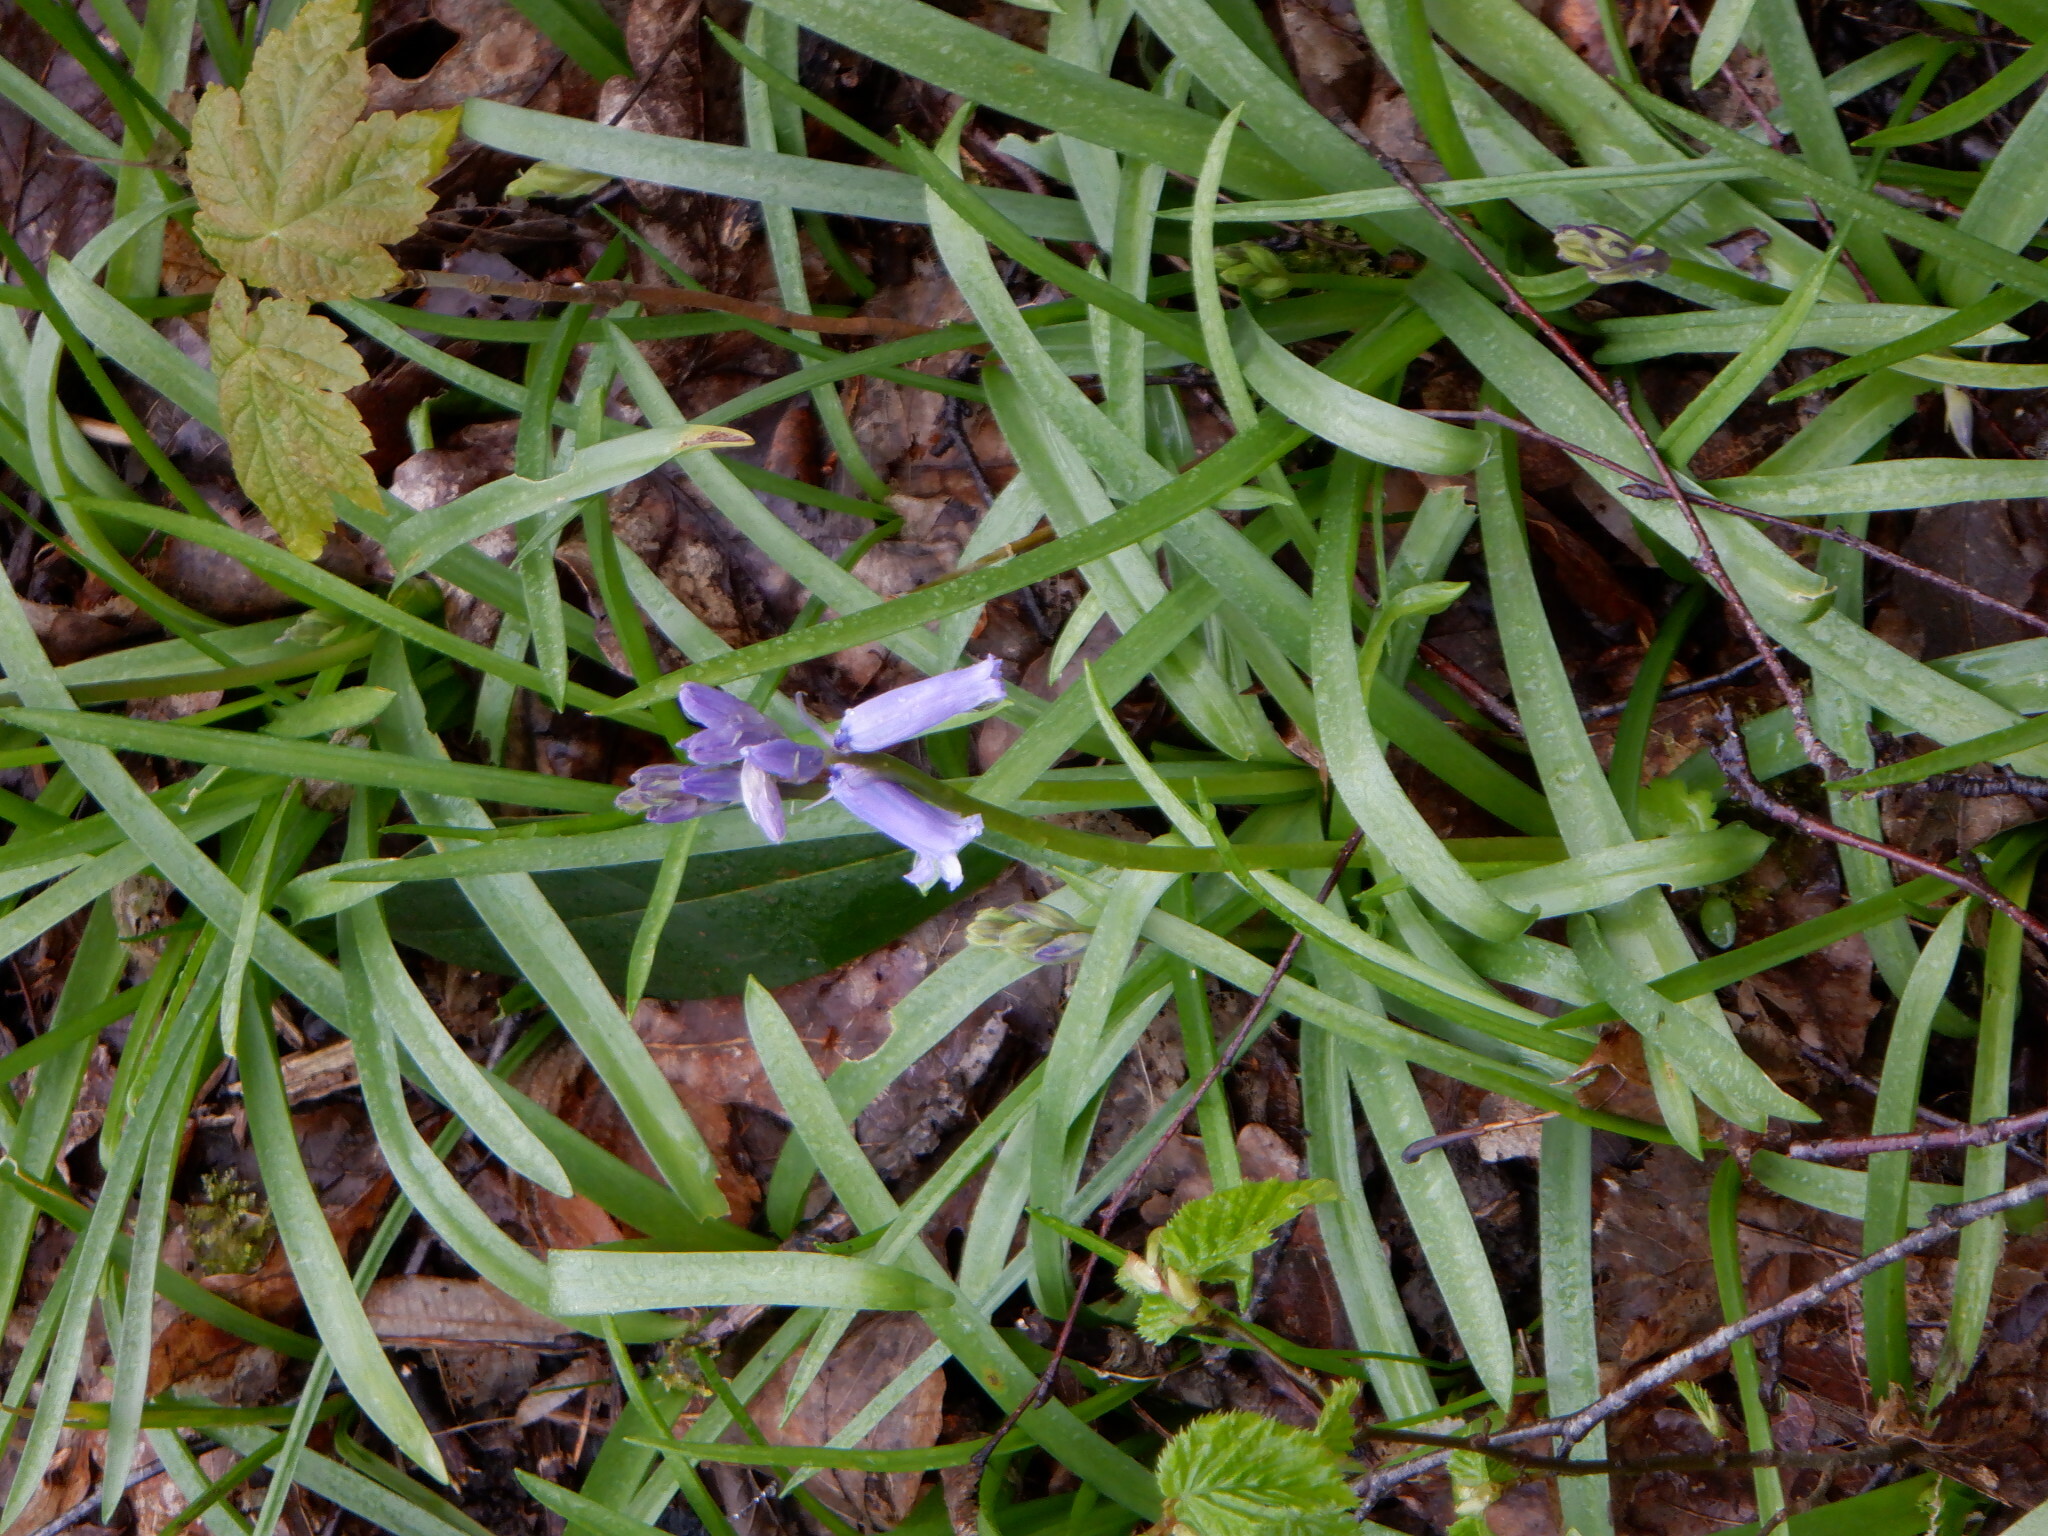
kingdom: Plantae
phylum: Tracheophyta
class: Liliopsida
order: Asparagales
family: Asparagaceae
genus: Hyacinthoides
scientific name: Hyacinthoides non-scripta
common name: Bluebell
